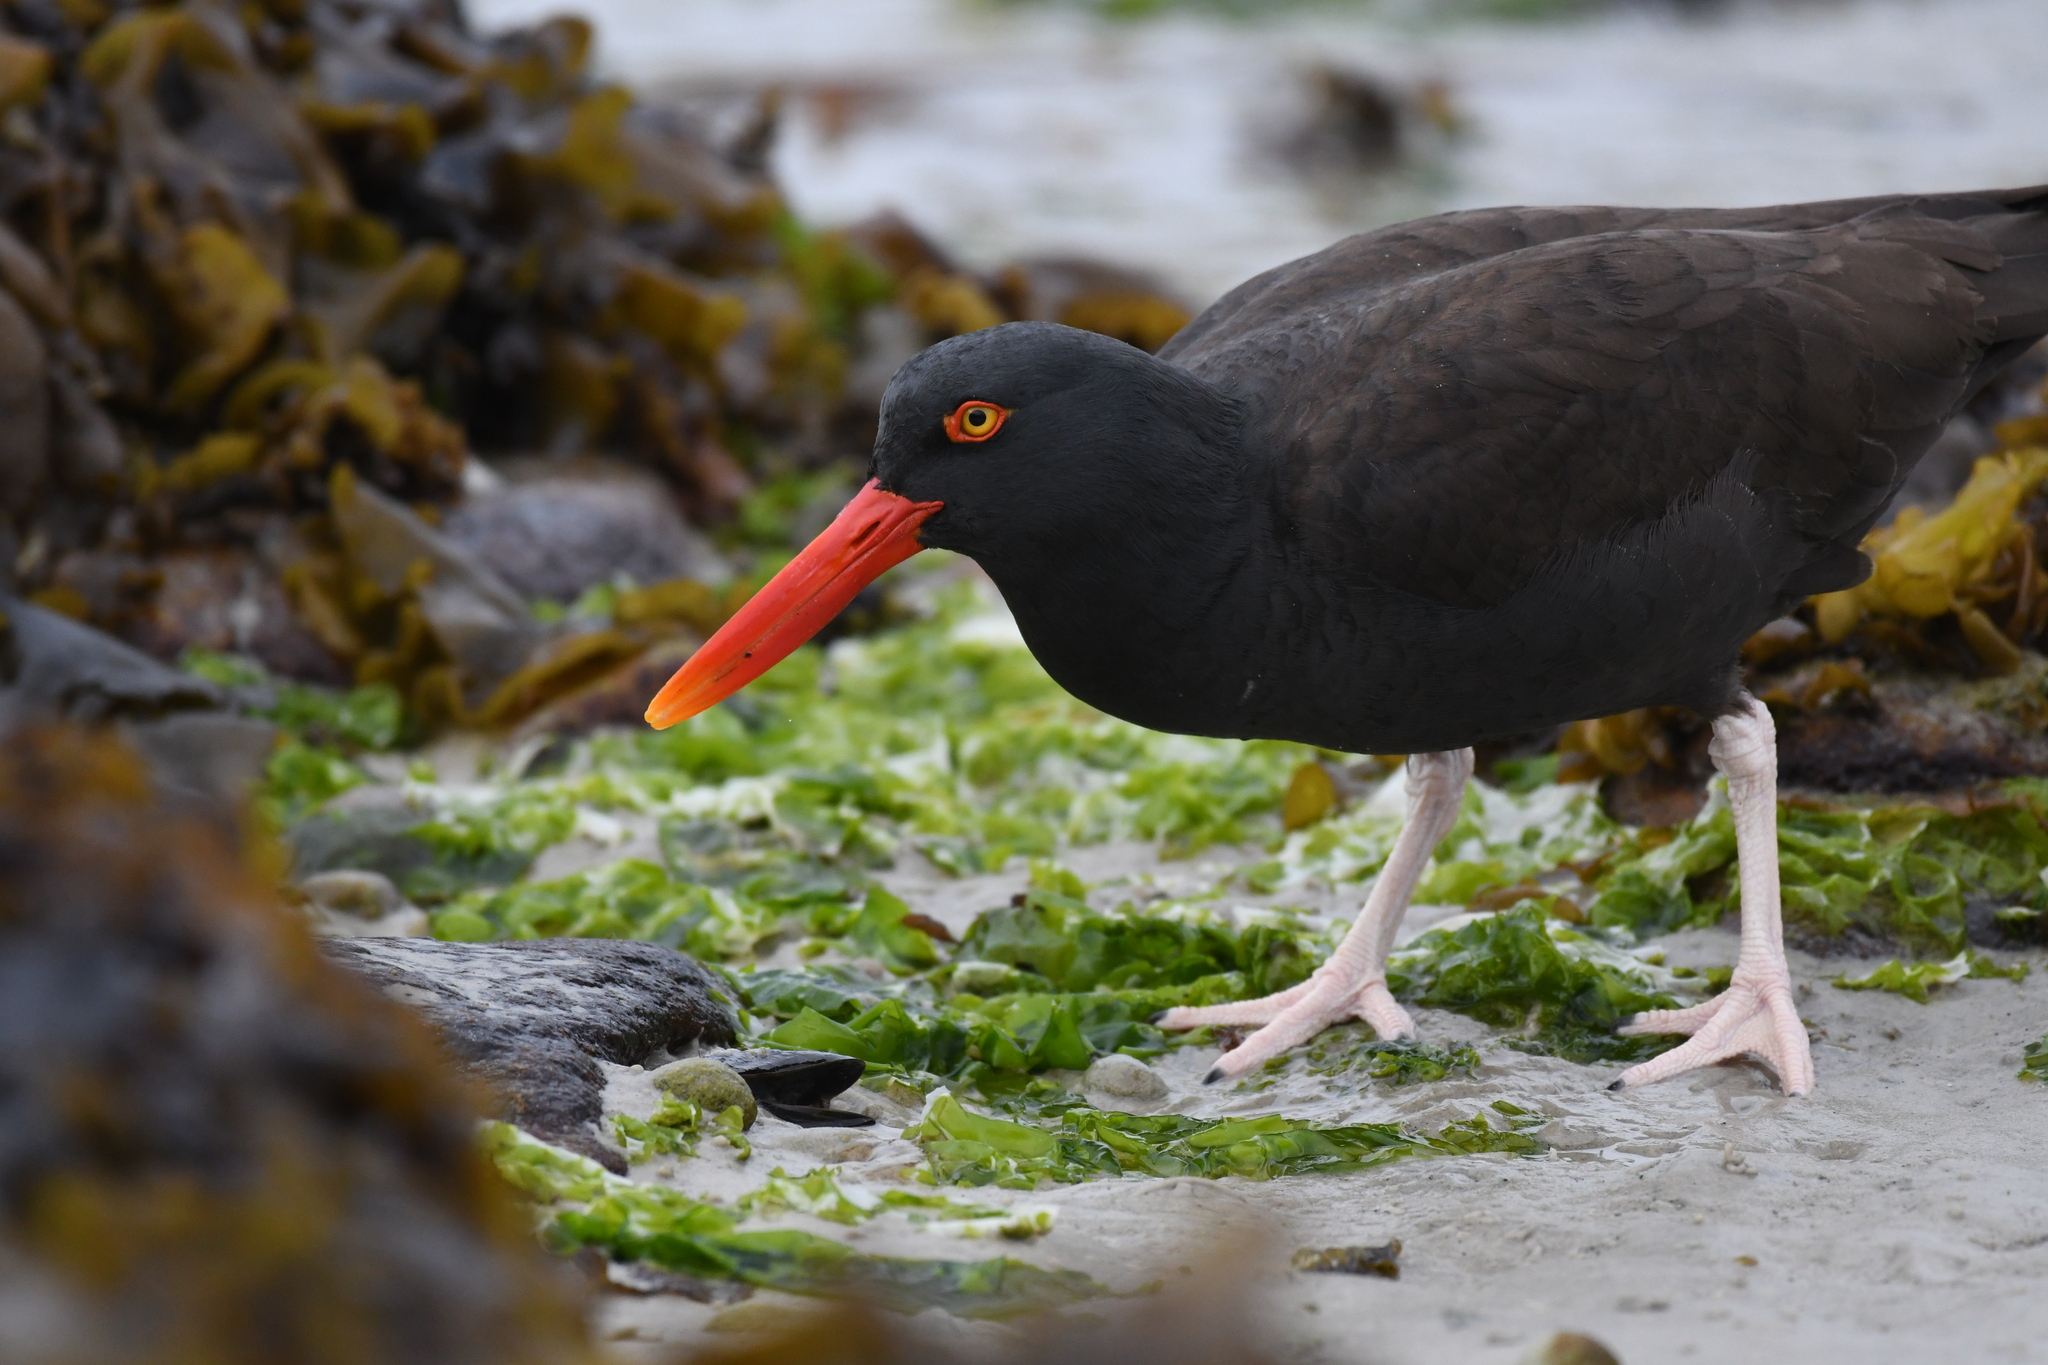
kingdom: Animalia
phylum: Chordata
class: Aves
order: Charadriiformes
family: Haematopodidae
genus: Haematopus
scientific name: Haematopus ater
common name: Blackish oystercatcher
